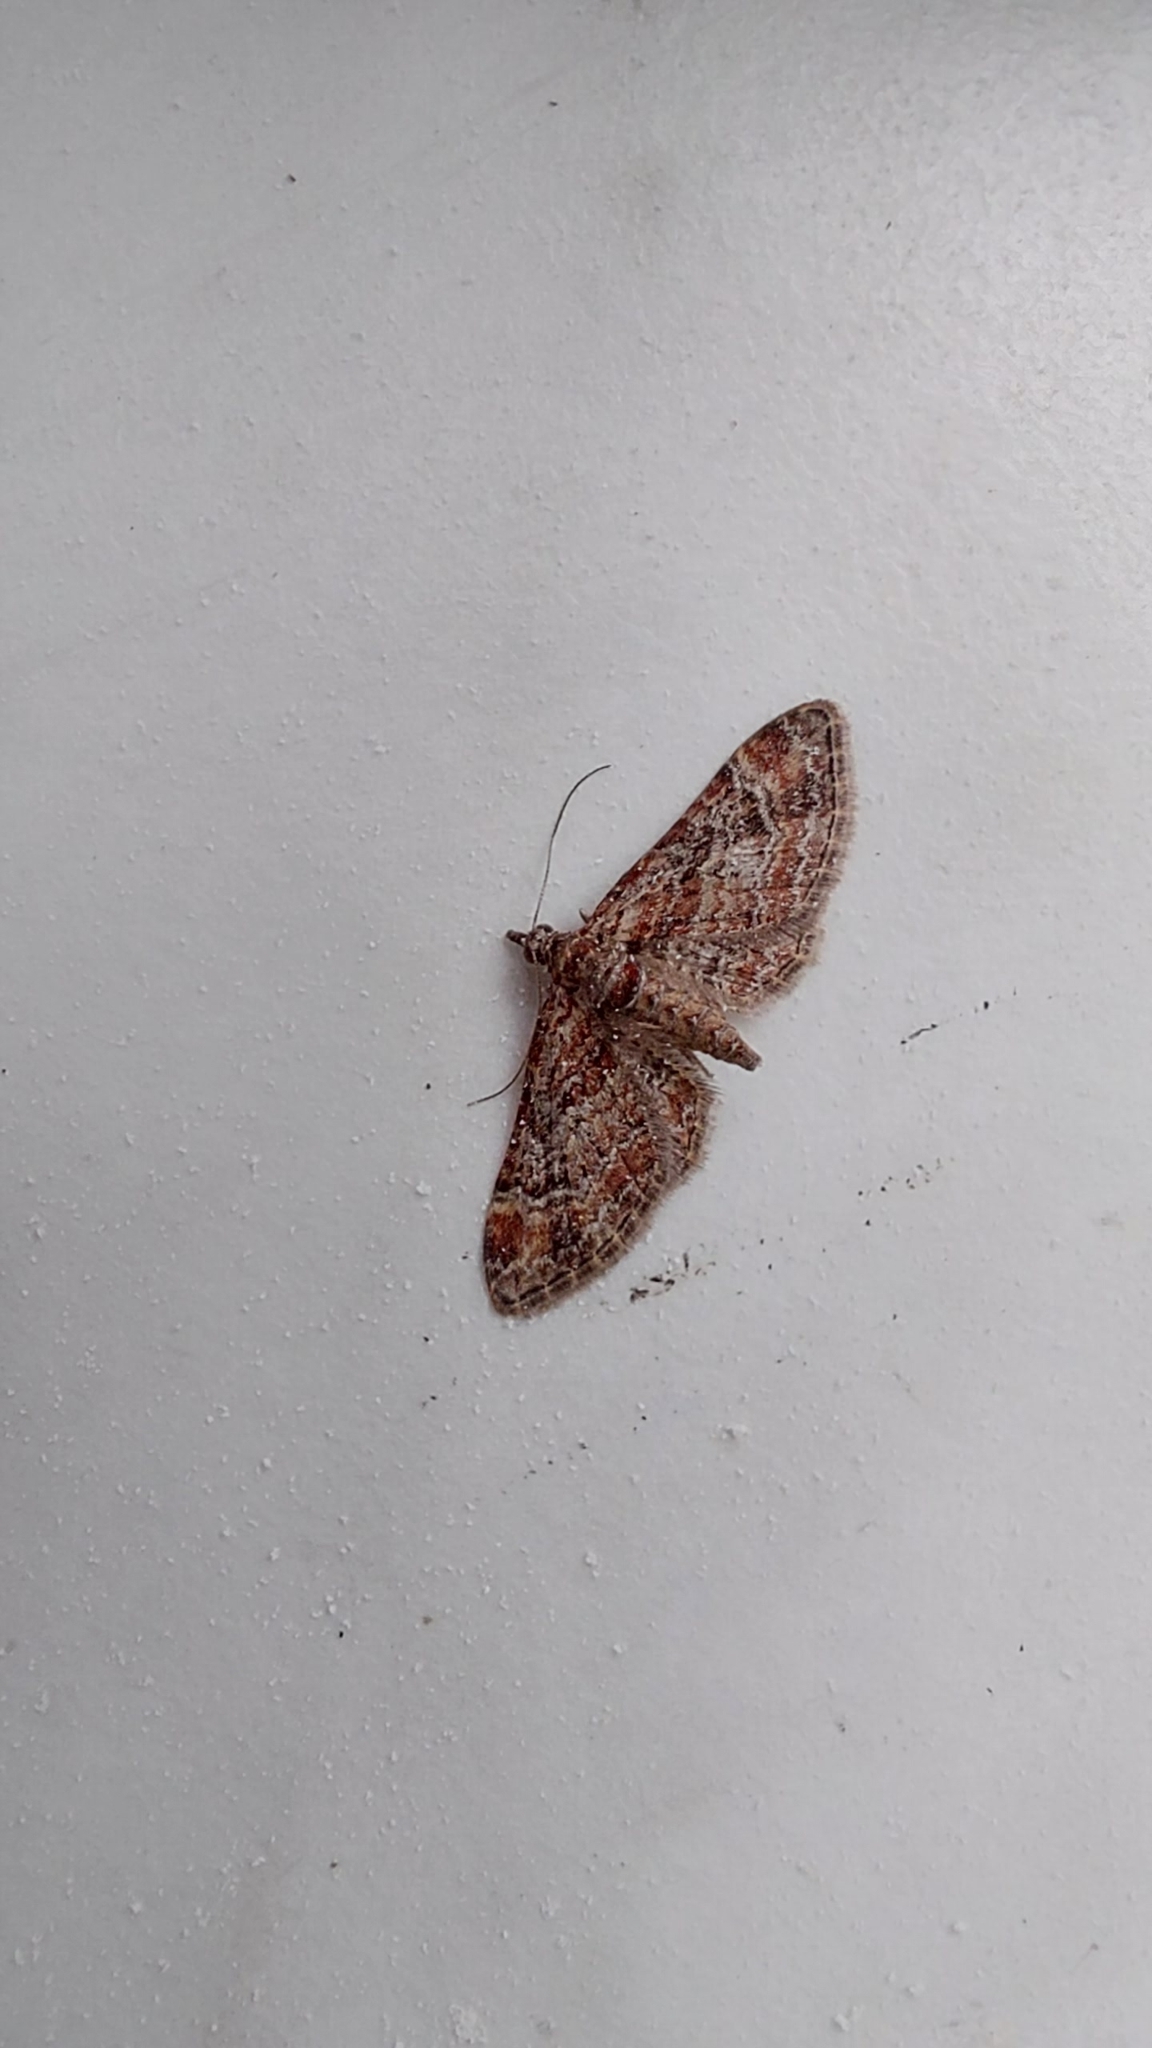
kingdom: Animalia
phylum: Arthropoda
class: Insecta
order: Lepidoptera
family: Geometridae
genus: Gymnoscelis
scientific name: Gymnoscelis rufifasciata
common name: Double-striped pug
